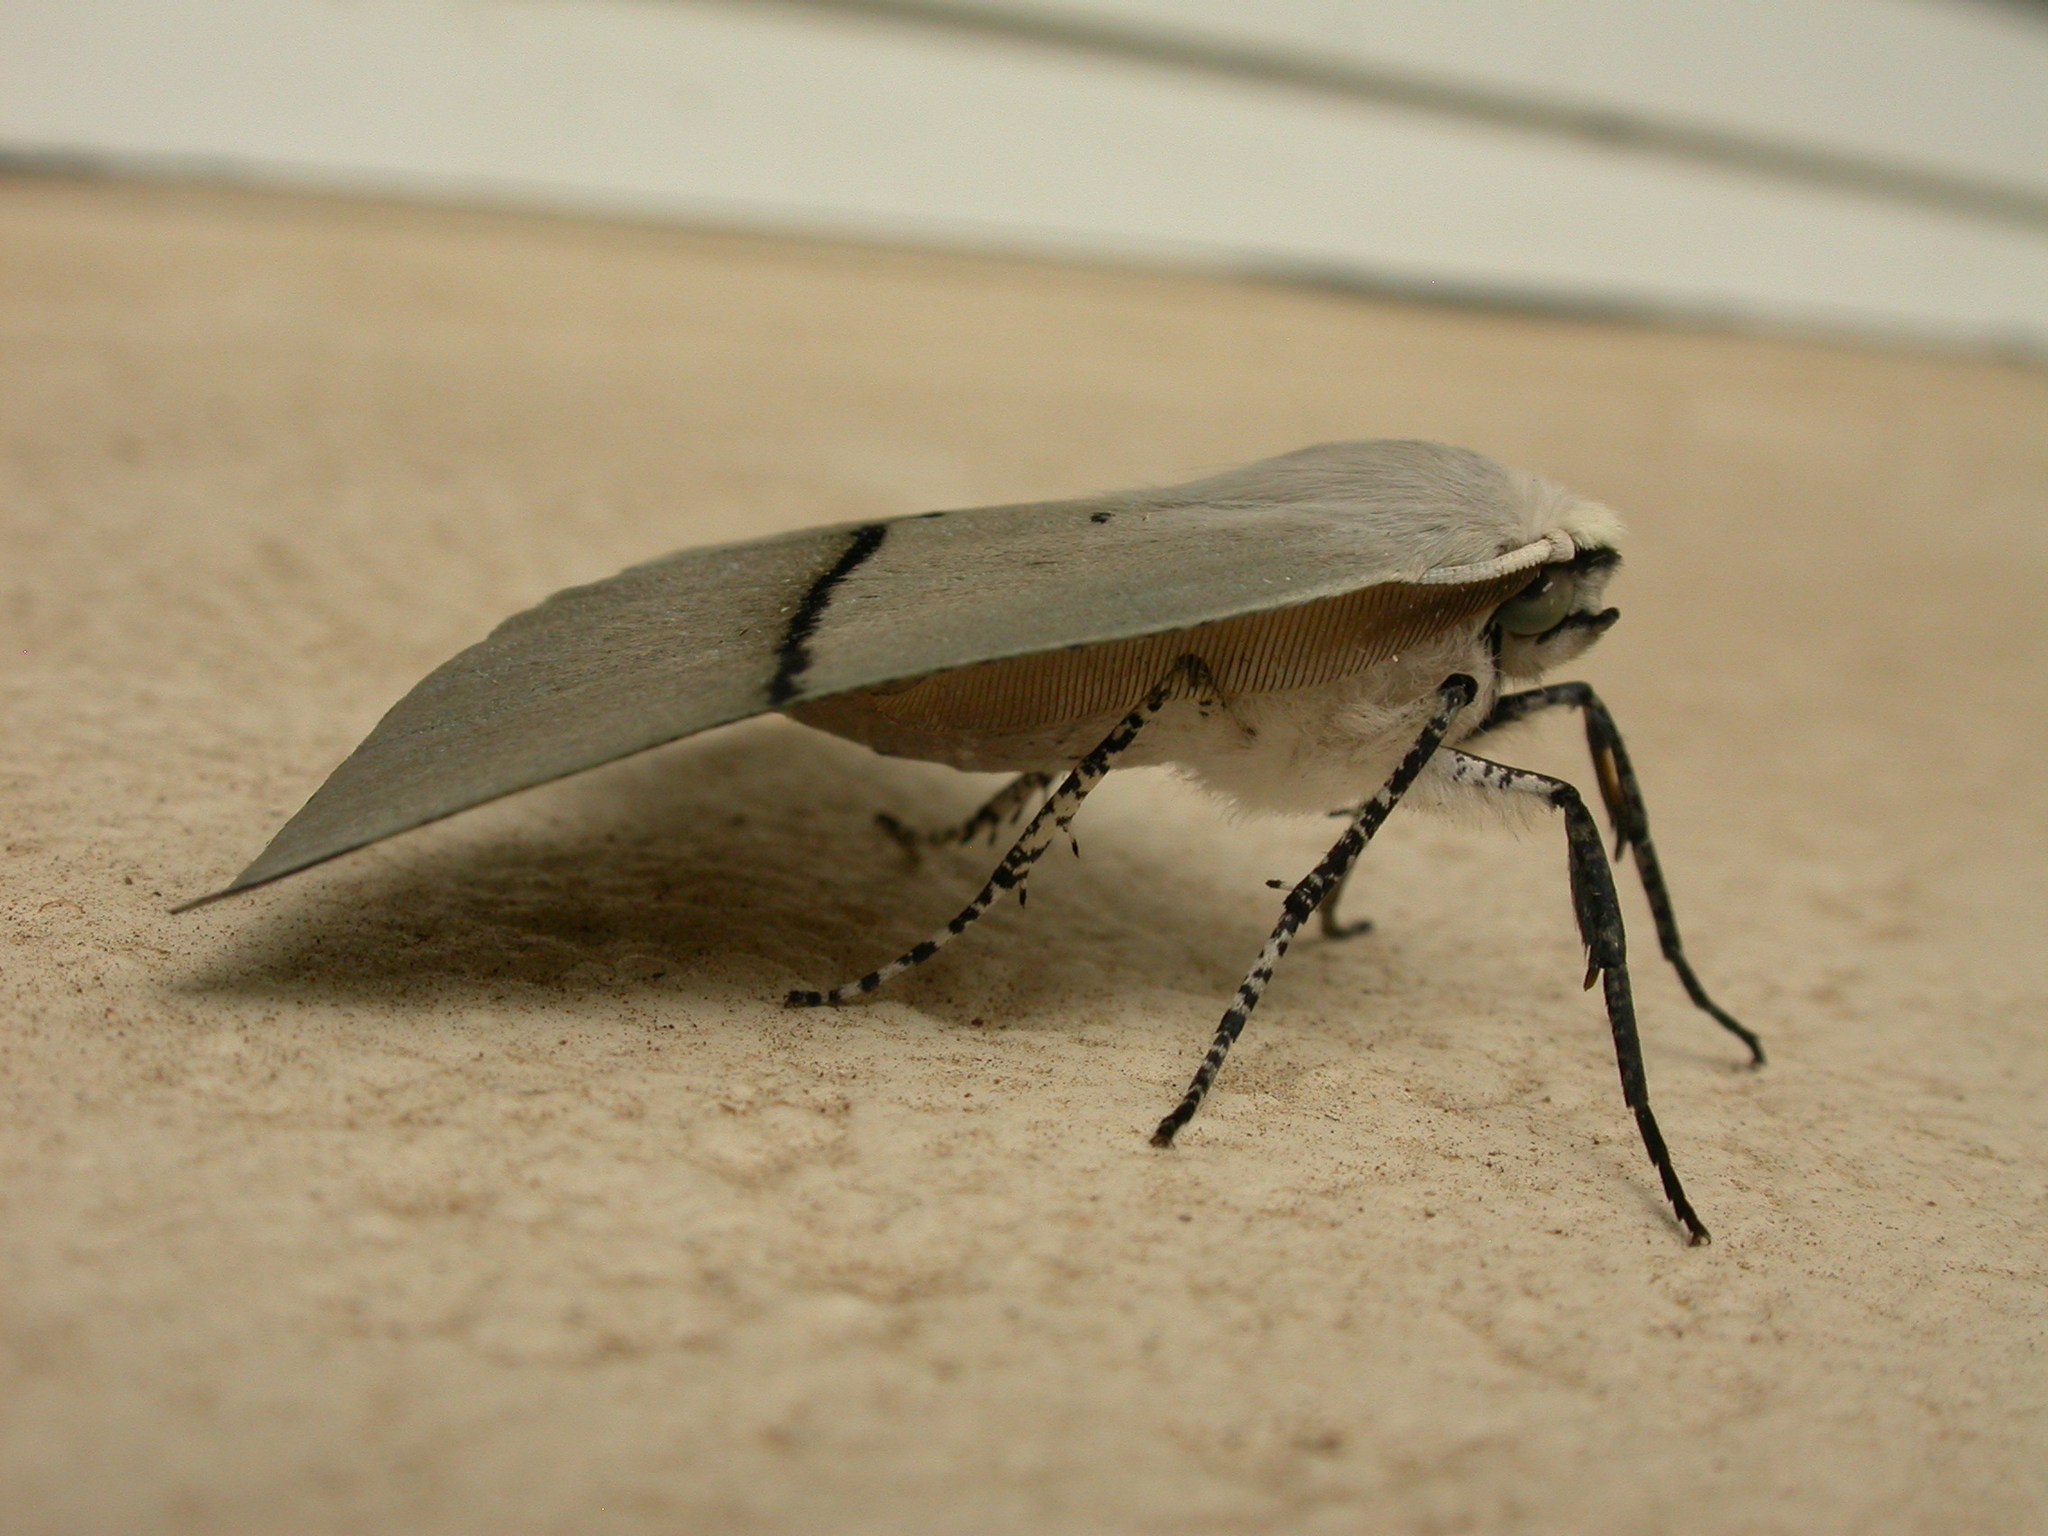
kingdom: Animalia
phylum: Arthropoda
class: Insecta
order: Lepidoptera
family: Geometridae
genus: Gastrophora
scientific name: Gastrophora henricaria
